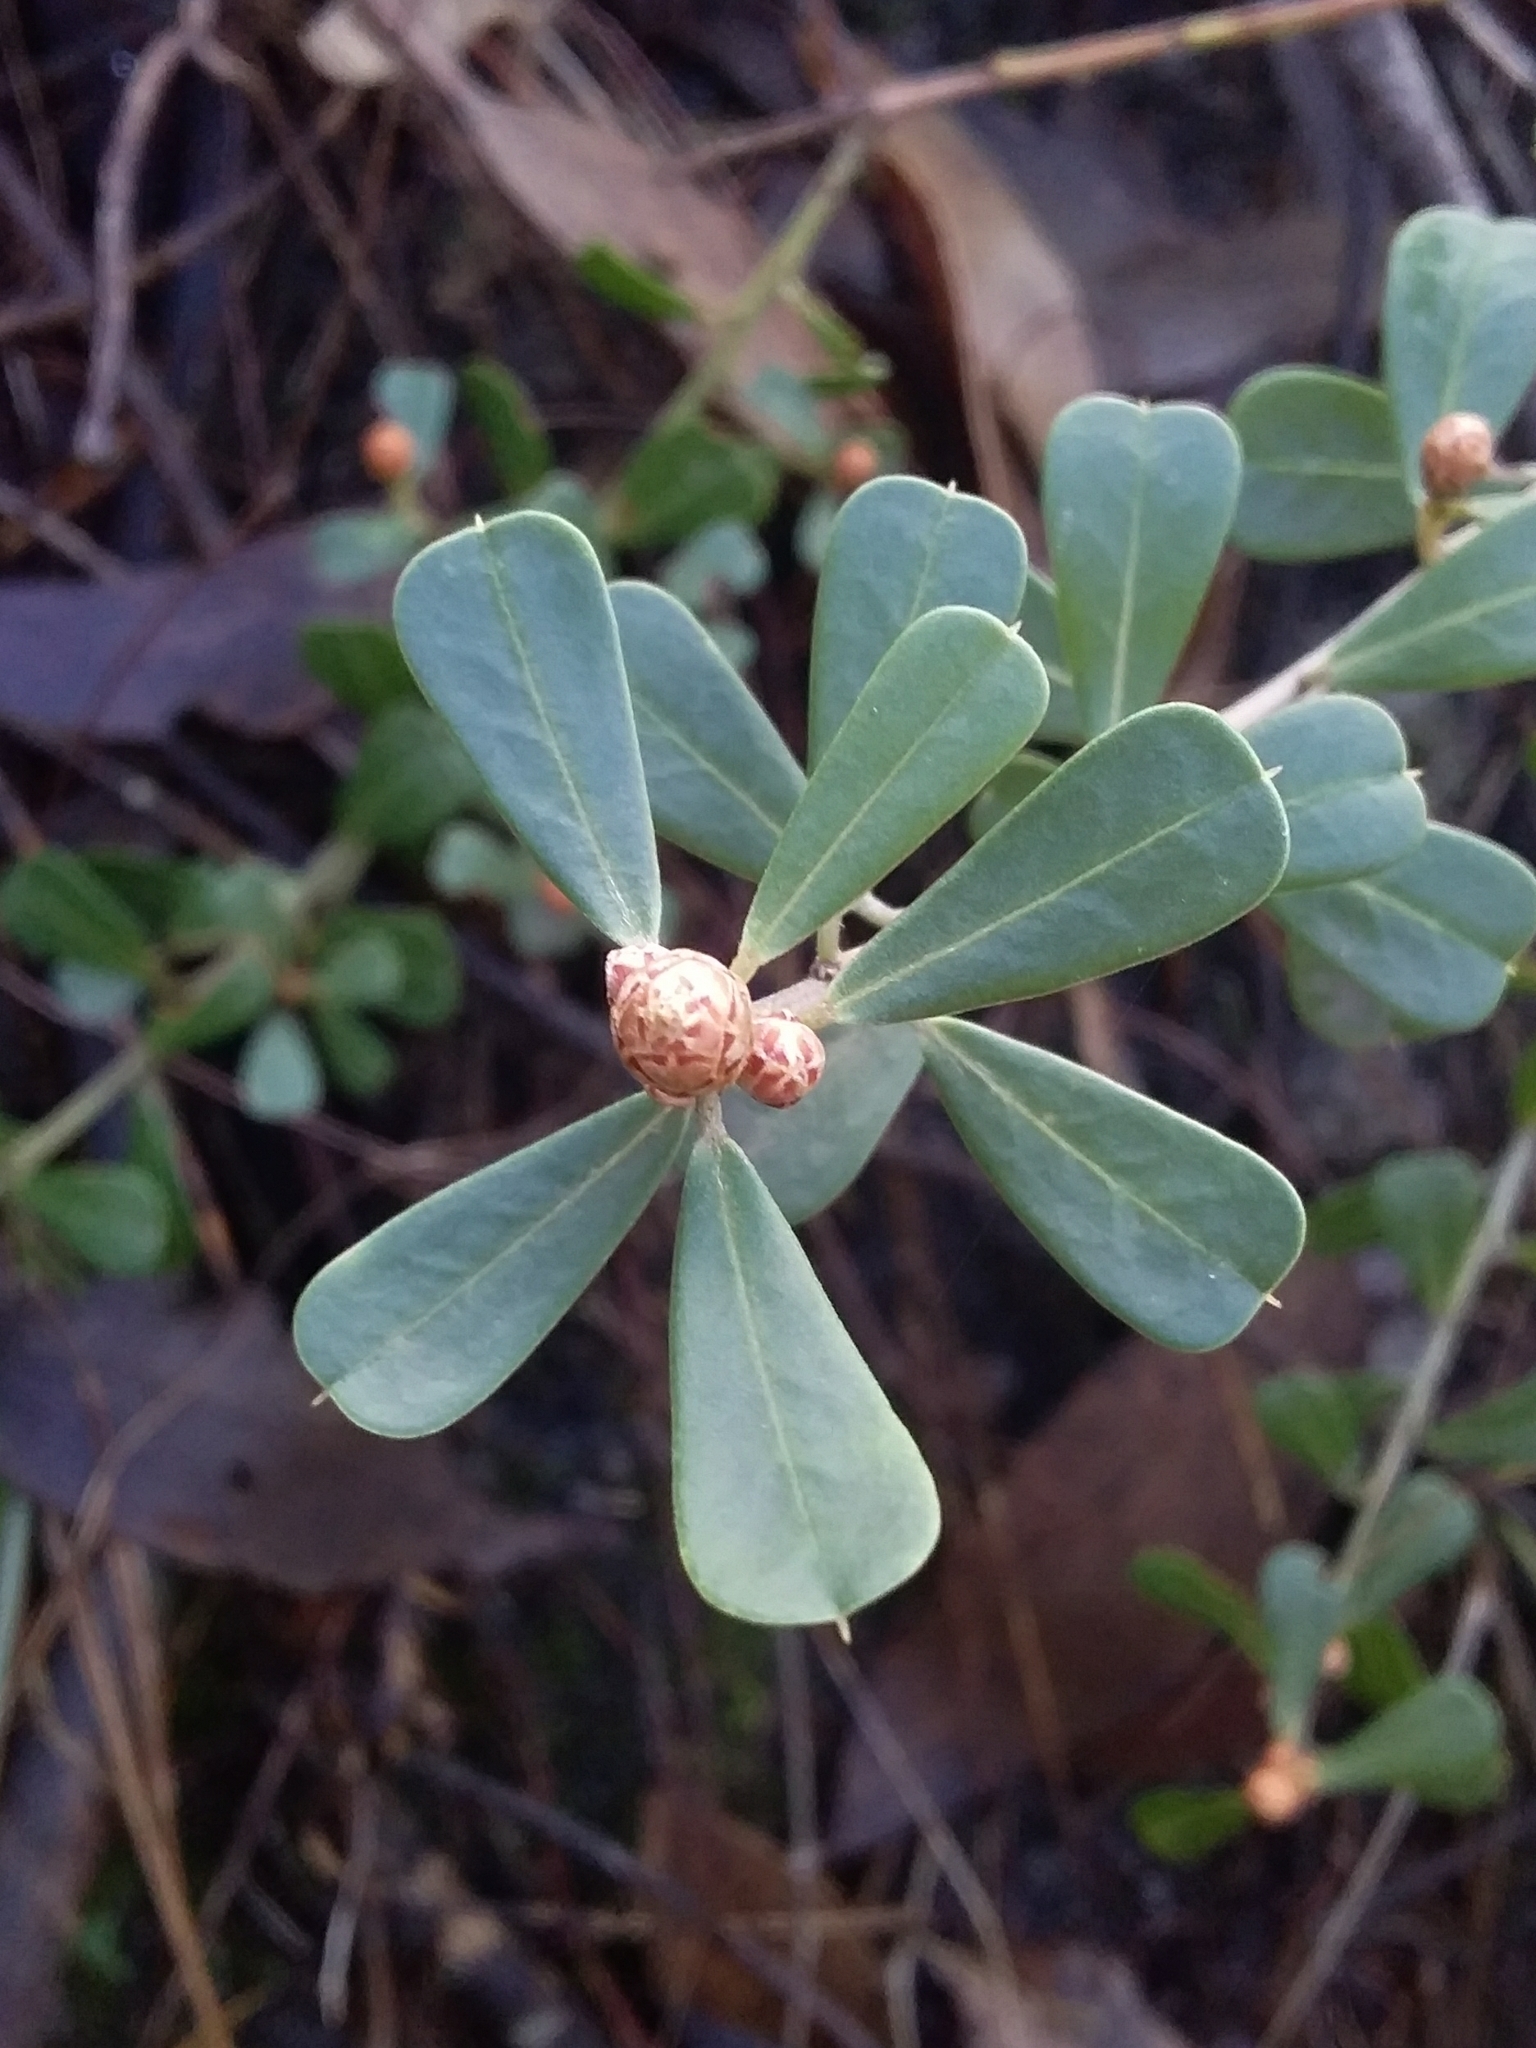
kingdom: Plantae
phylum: Tracheophyta
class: Magnoliopsida
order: Fabales
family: Fabaceae
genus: Pultenaea
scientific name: Pultenaea daphnoides
